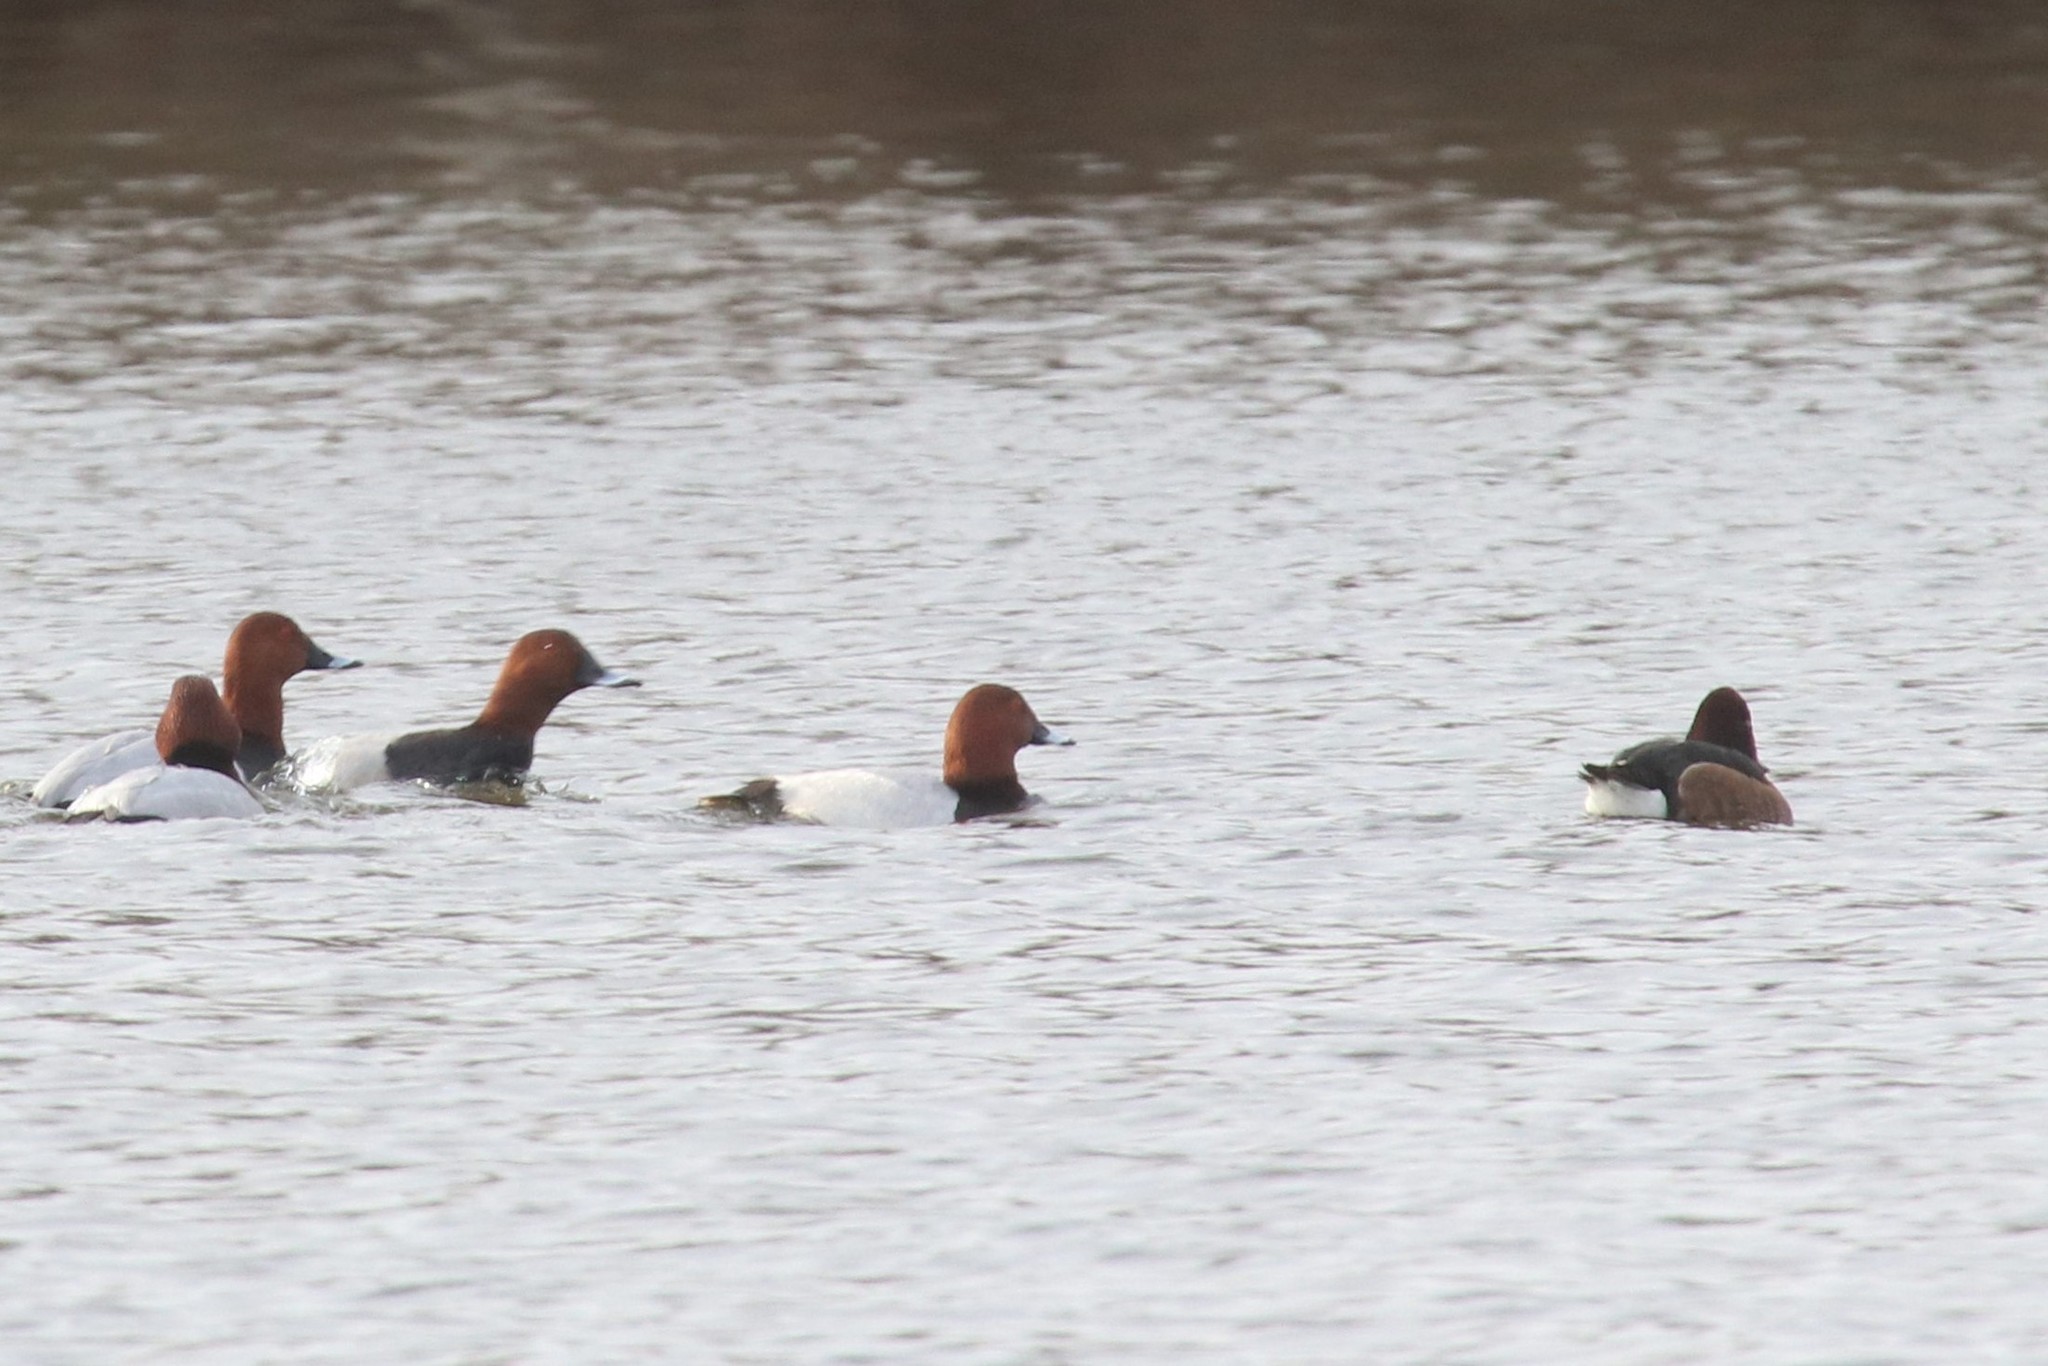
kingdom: Animalia
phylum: Chordata
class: Aves
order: Anseriformes
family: Anatidae
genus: Aythya
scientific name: Aythya nyroca
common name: Ferruginous duck
